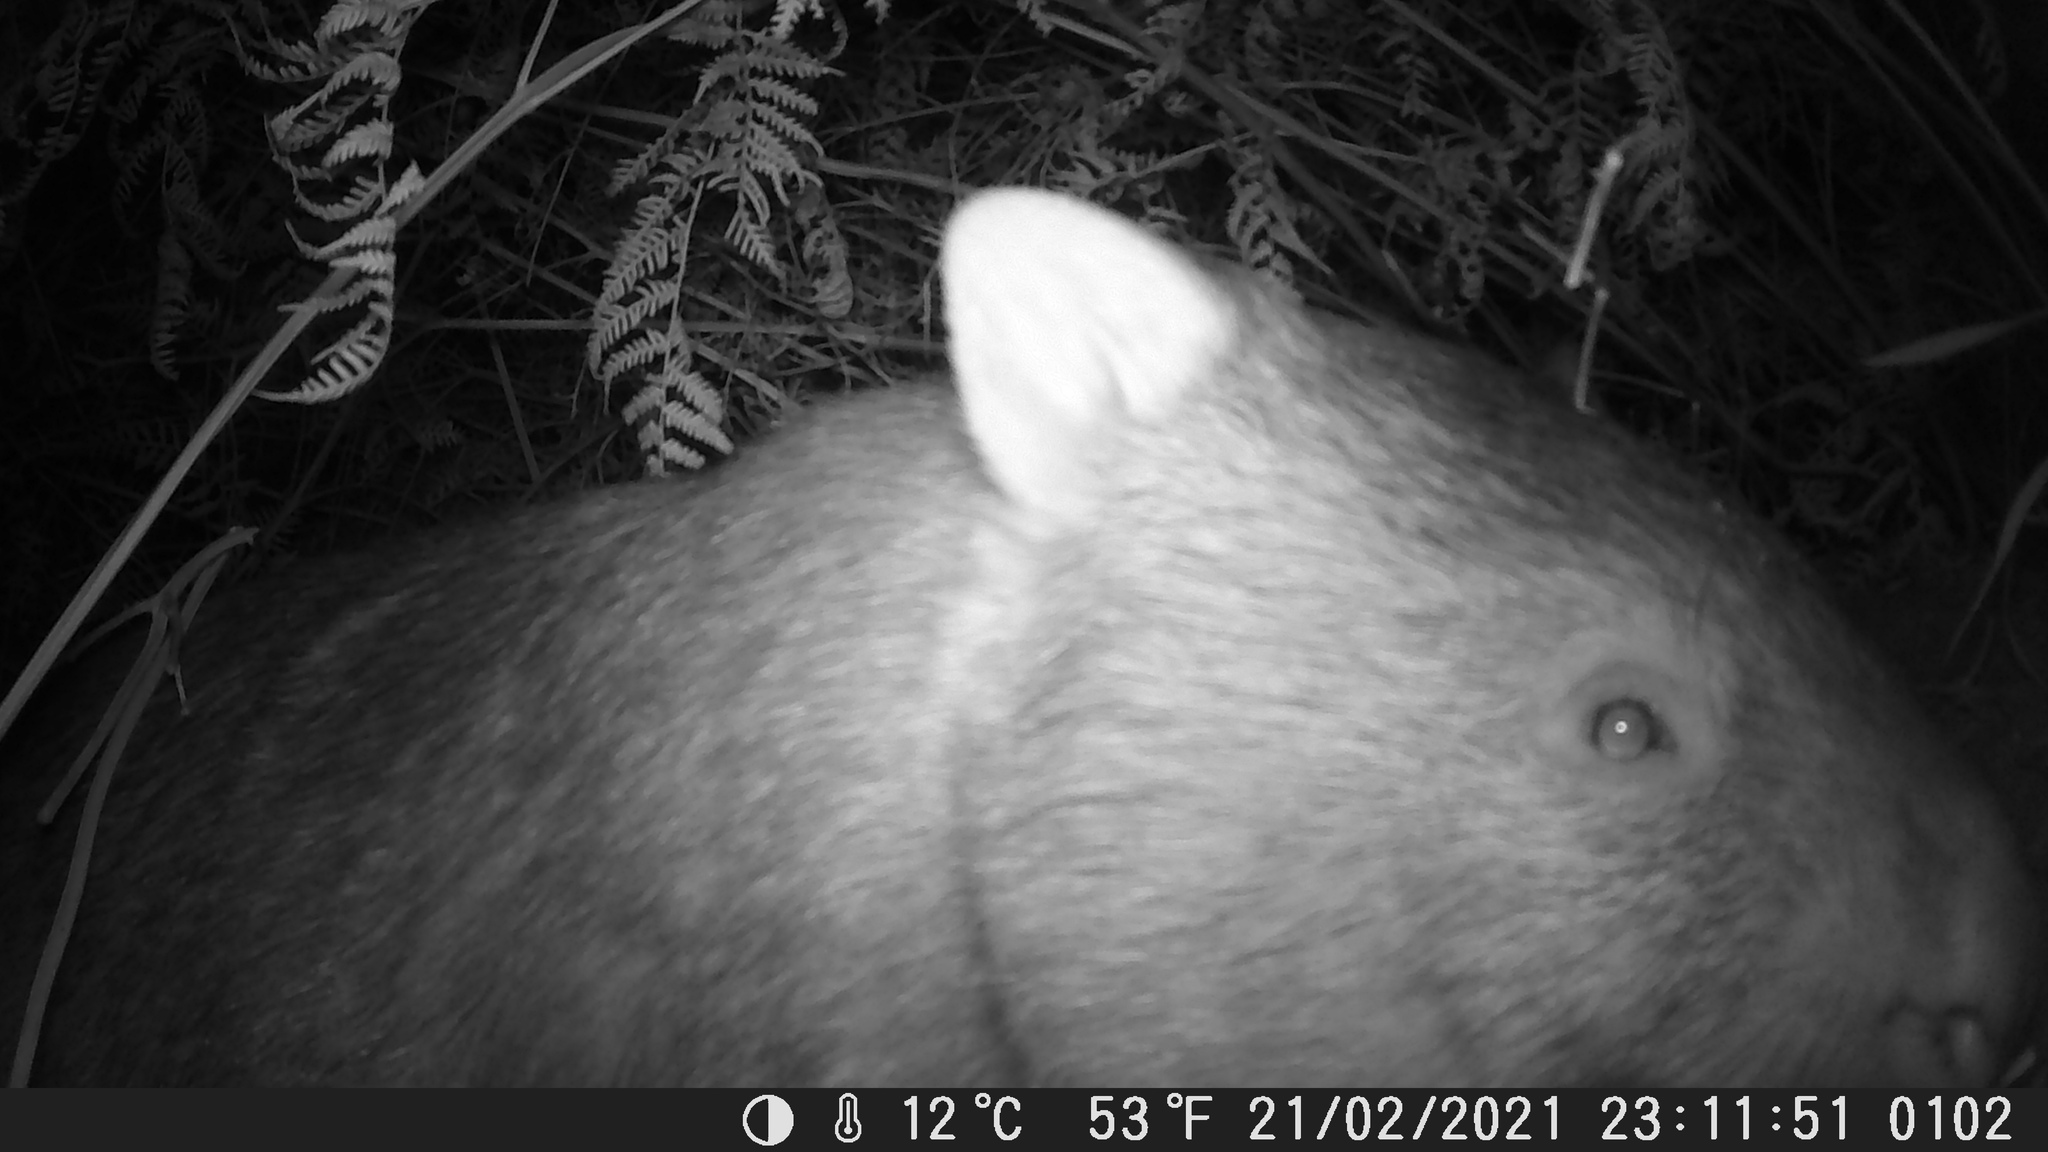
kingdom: Animalia
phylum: Chordata
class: Mammalia
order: Diprotodontia
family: Vombatidae
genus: Vombatus
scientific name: Vombatus ursinus
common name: Common wombat
